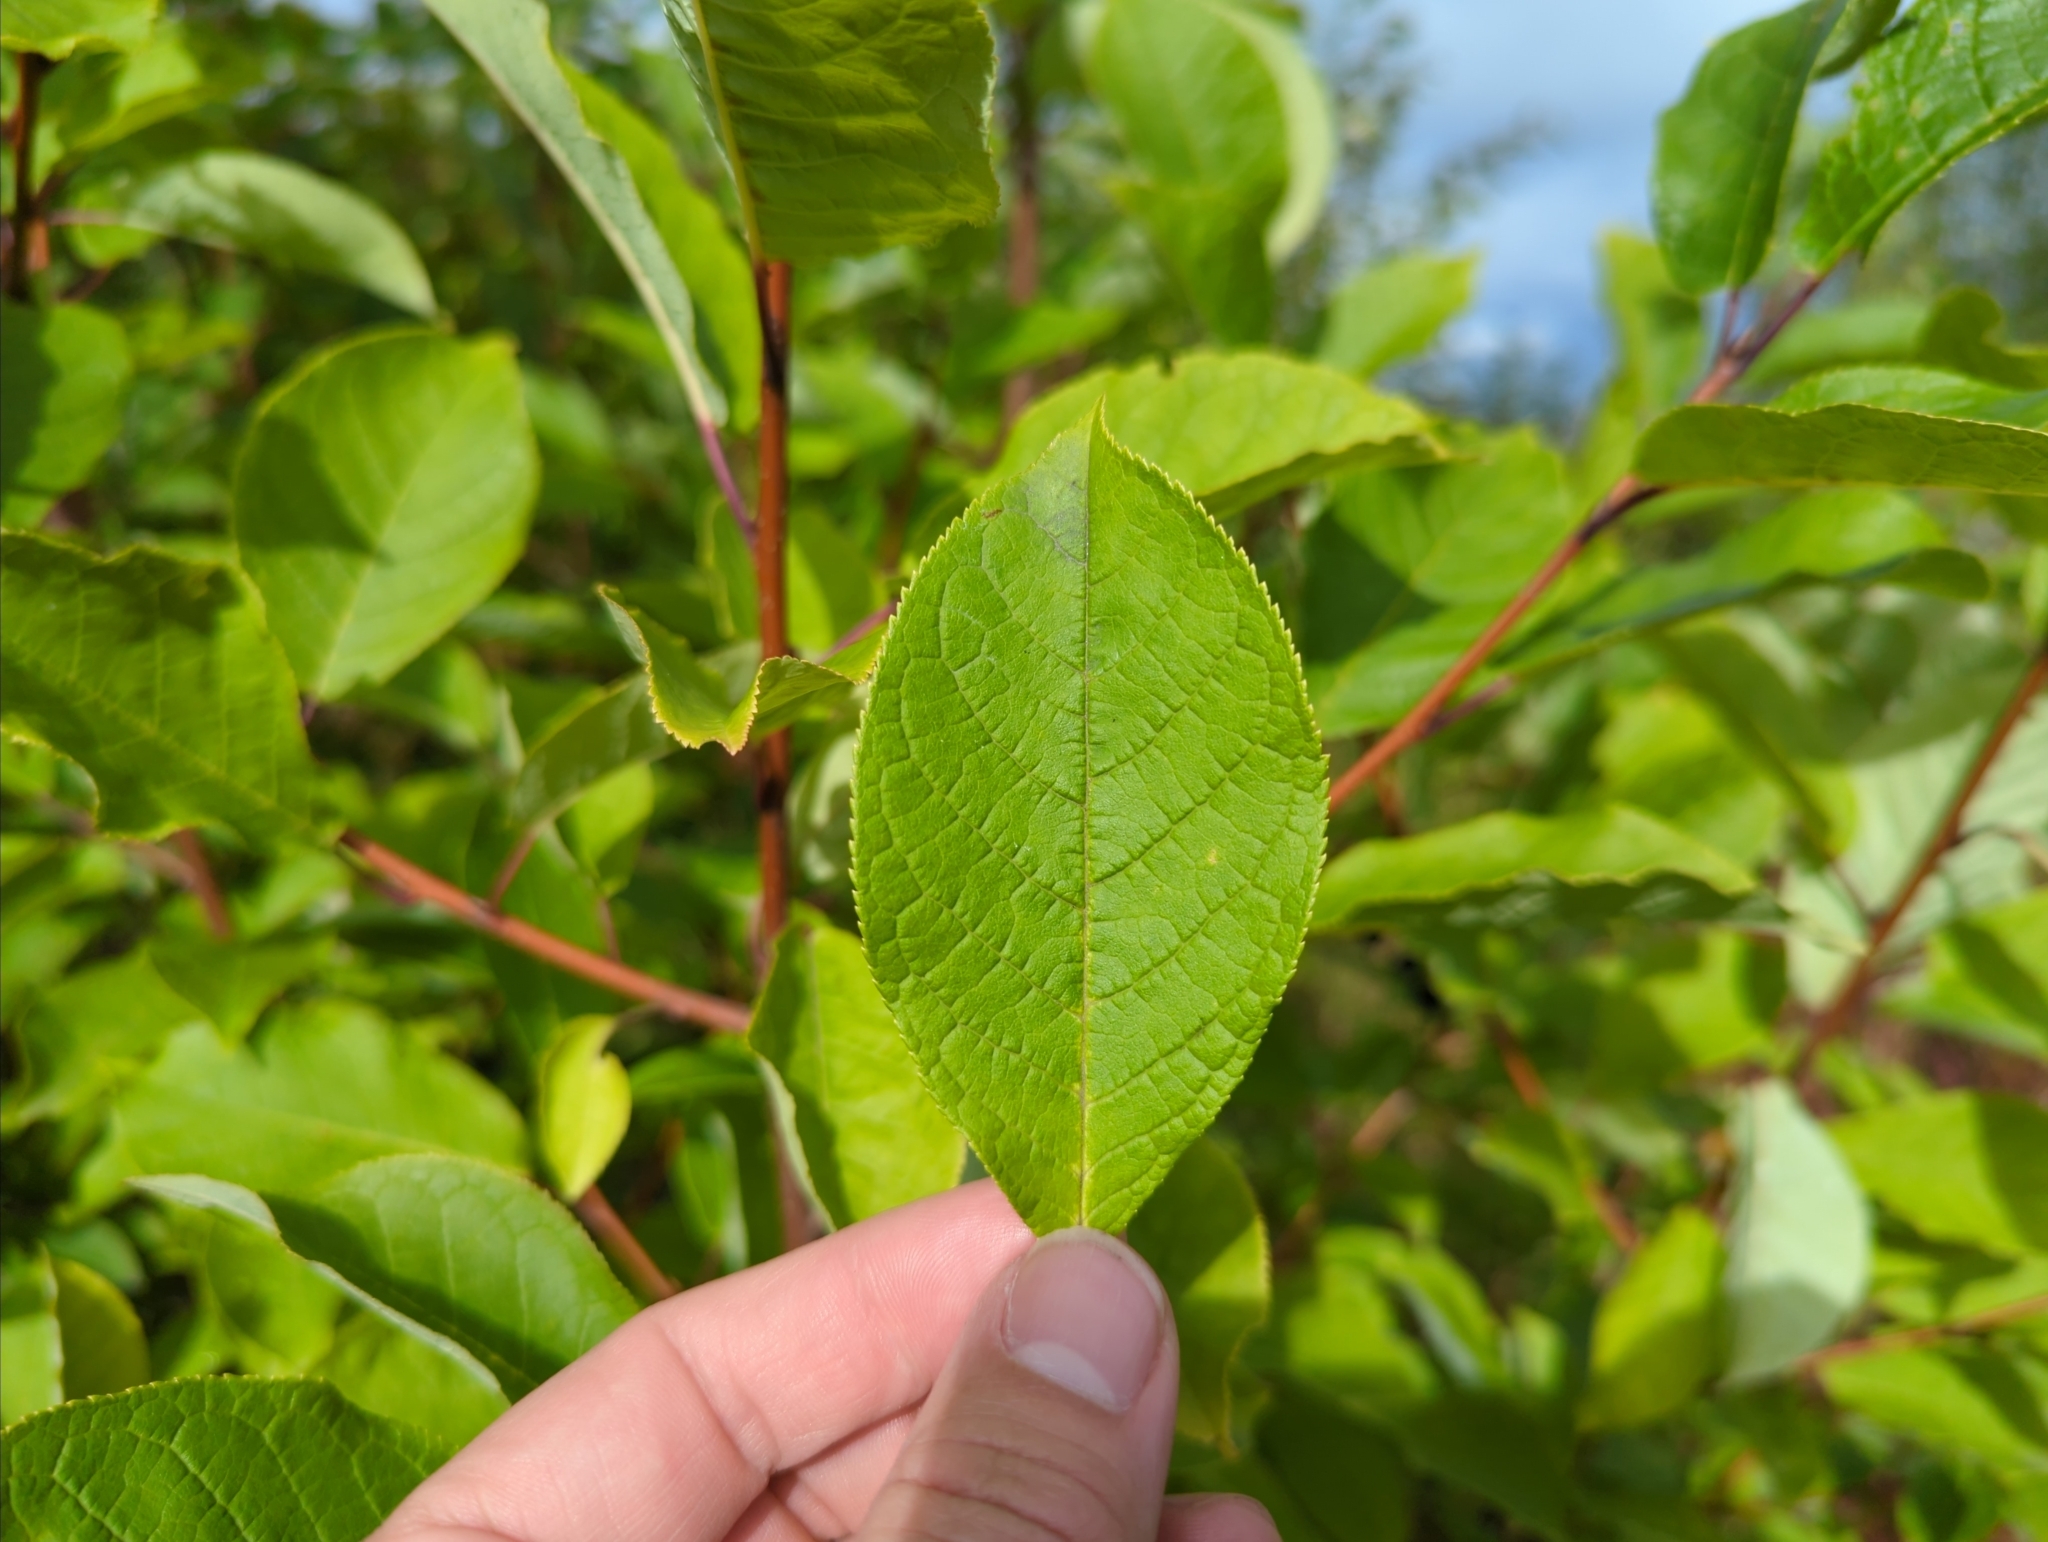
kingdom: Plantae
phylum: Tracheophyta
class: Magnoliopsida
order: Rosales
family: Rosaceae
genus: Prunus
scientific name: Prunus padus
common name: Bird cherry
